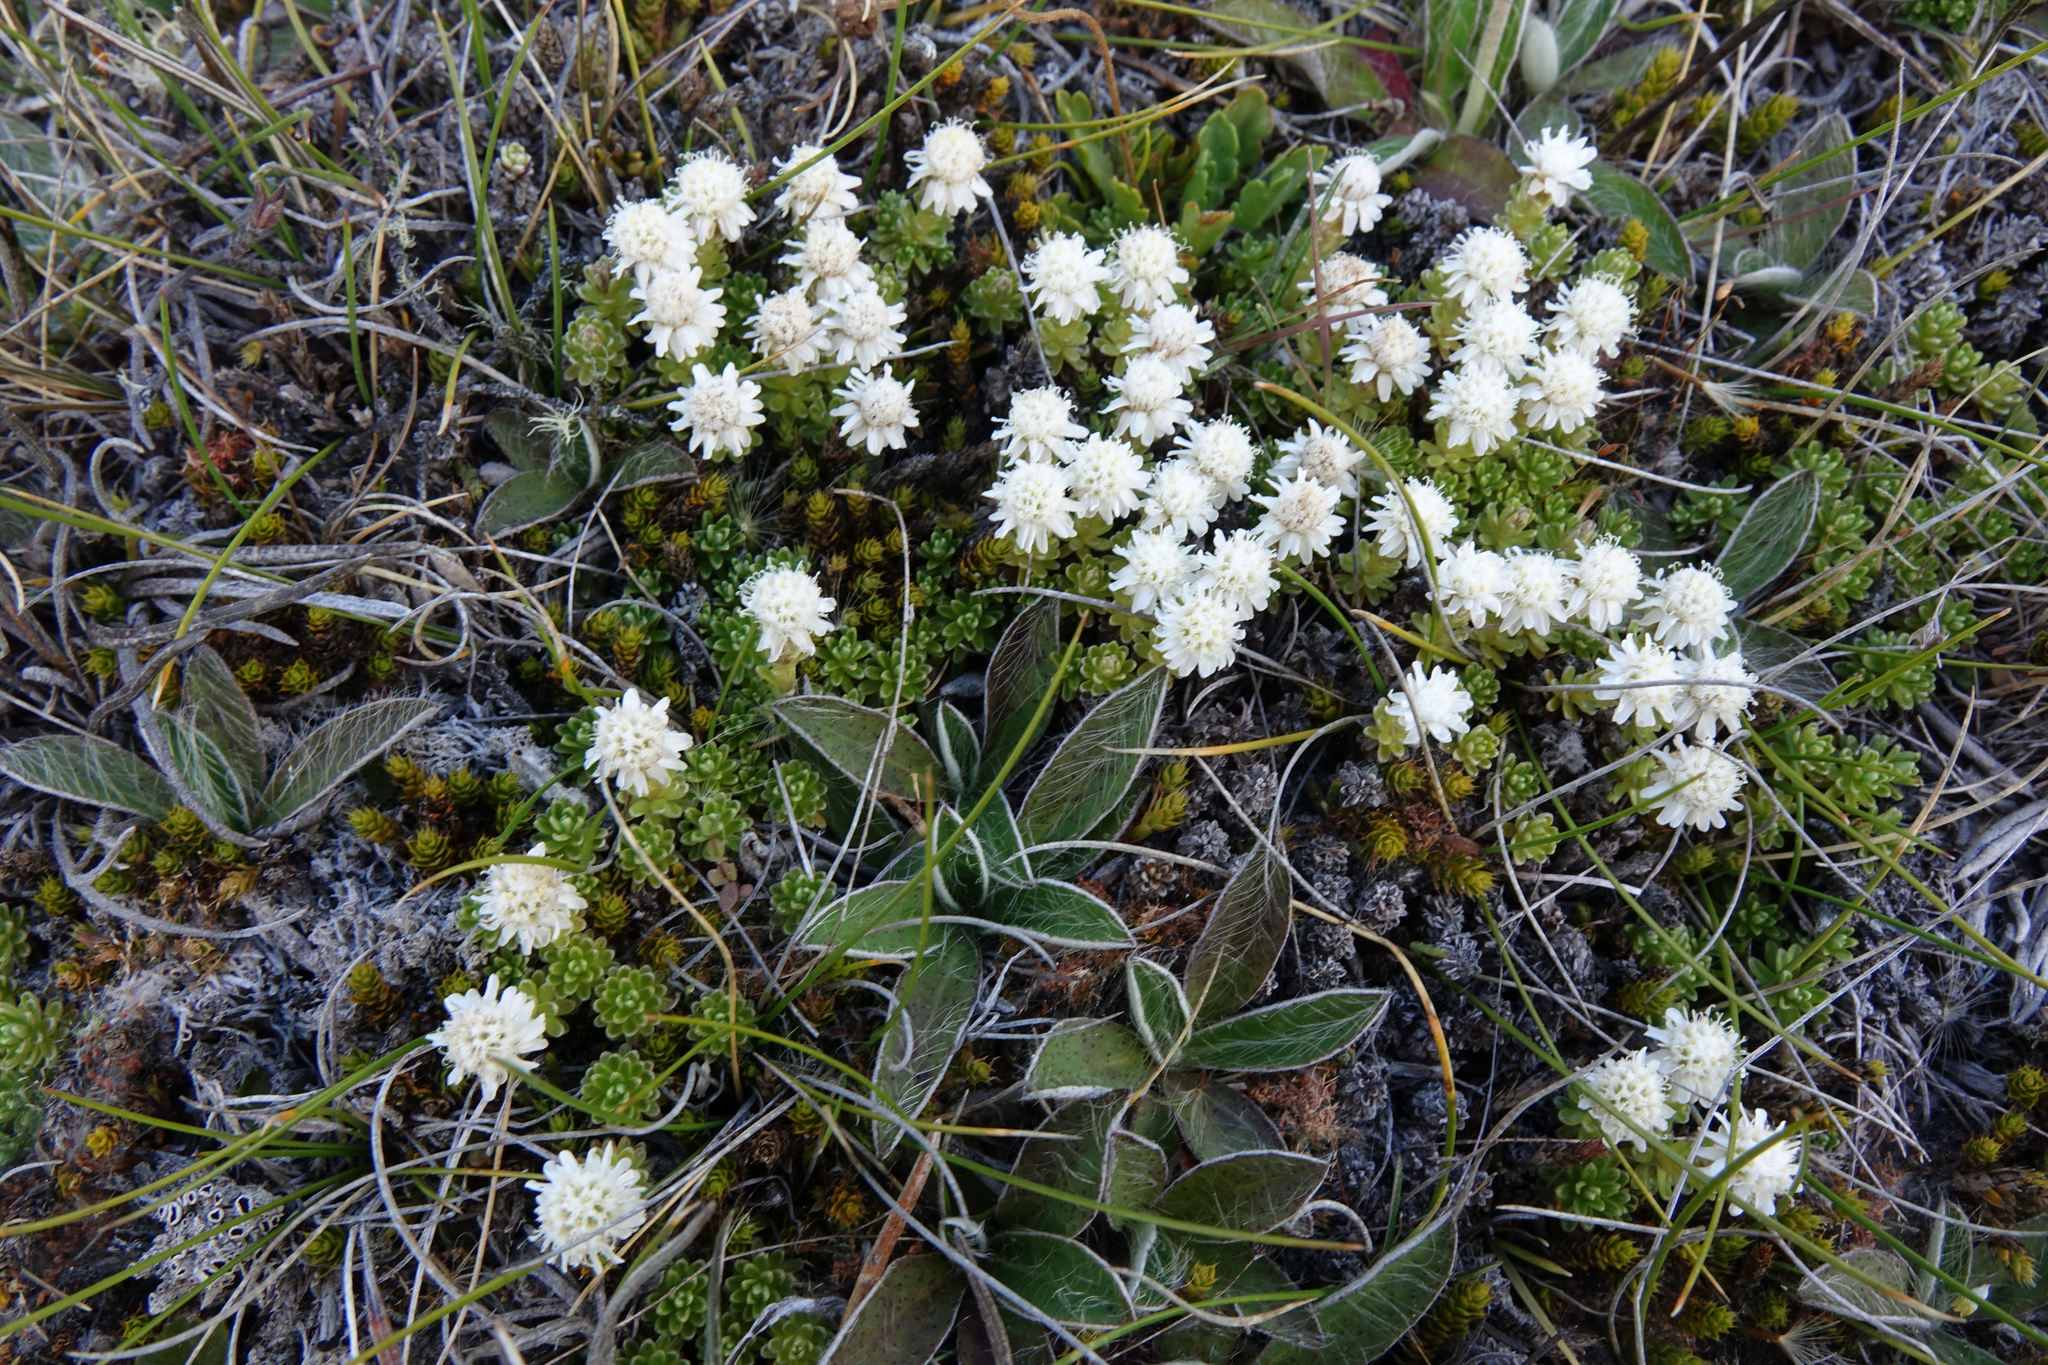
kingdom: Plantae
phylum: Tracheophyta
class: Magnoliopsida
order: Asterales
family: Asteraceae
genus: Raoulia
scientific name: Raoulia subsericea
